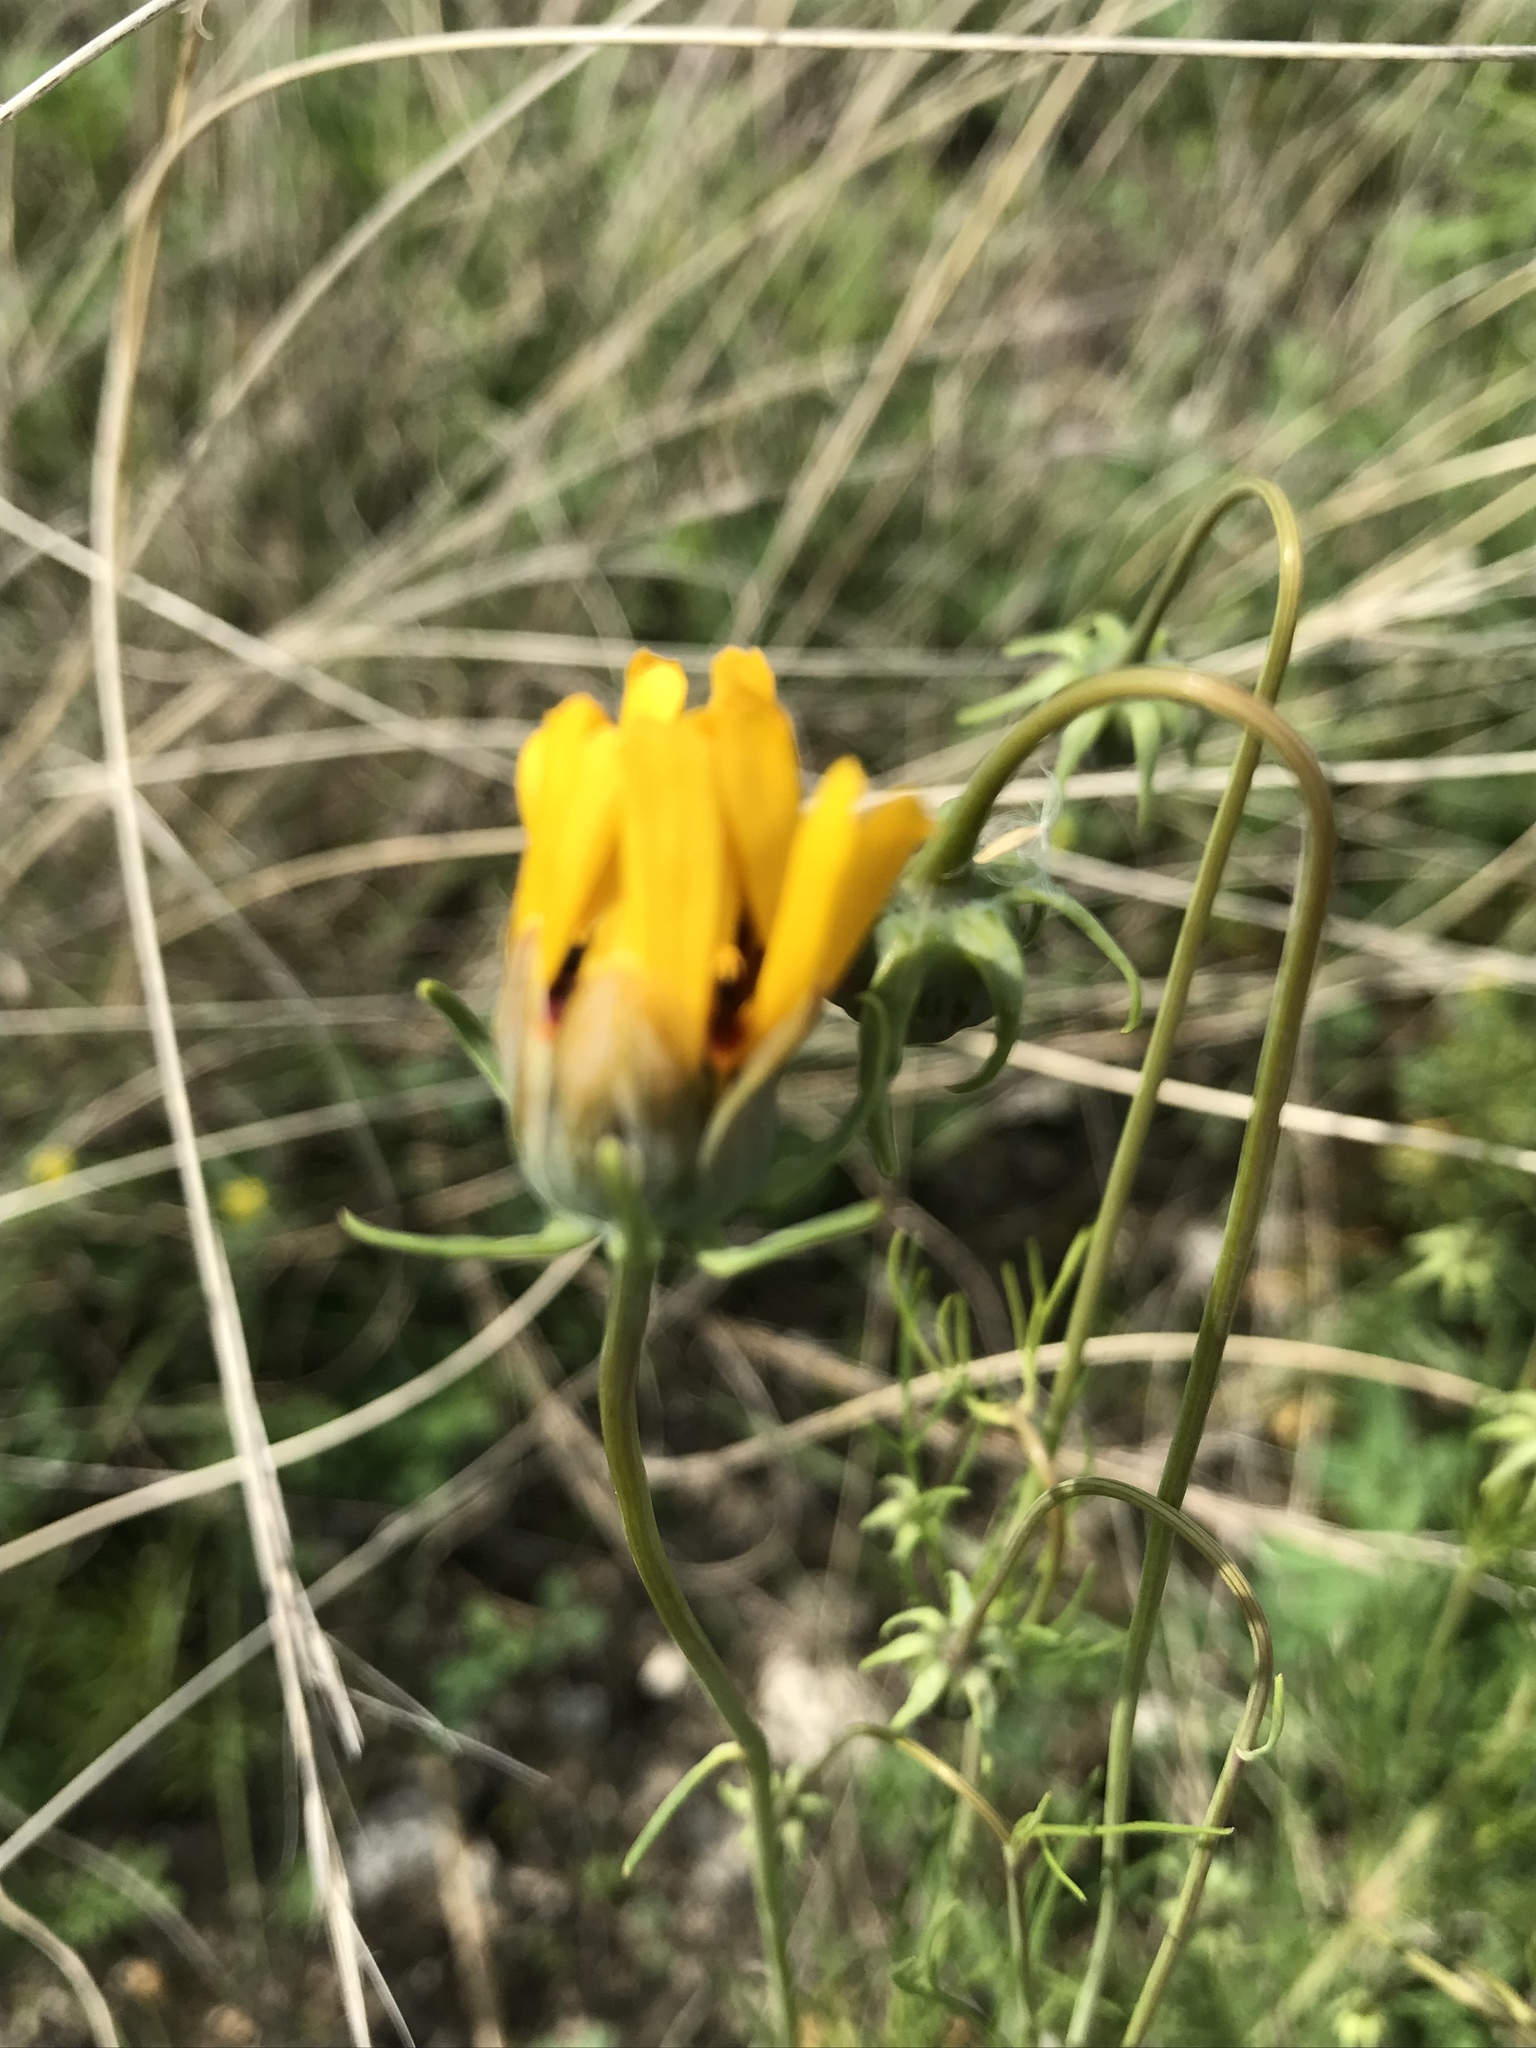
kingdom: Plantae
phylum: Tracheophyta
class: Magnoliopsida
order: Asterales
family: Asteraceae
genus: Thelesperma
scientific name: Thelesperma filifolium
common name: Stiff greenthread
